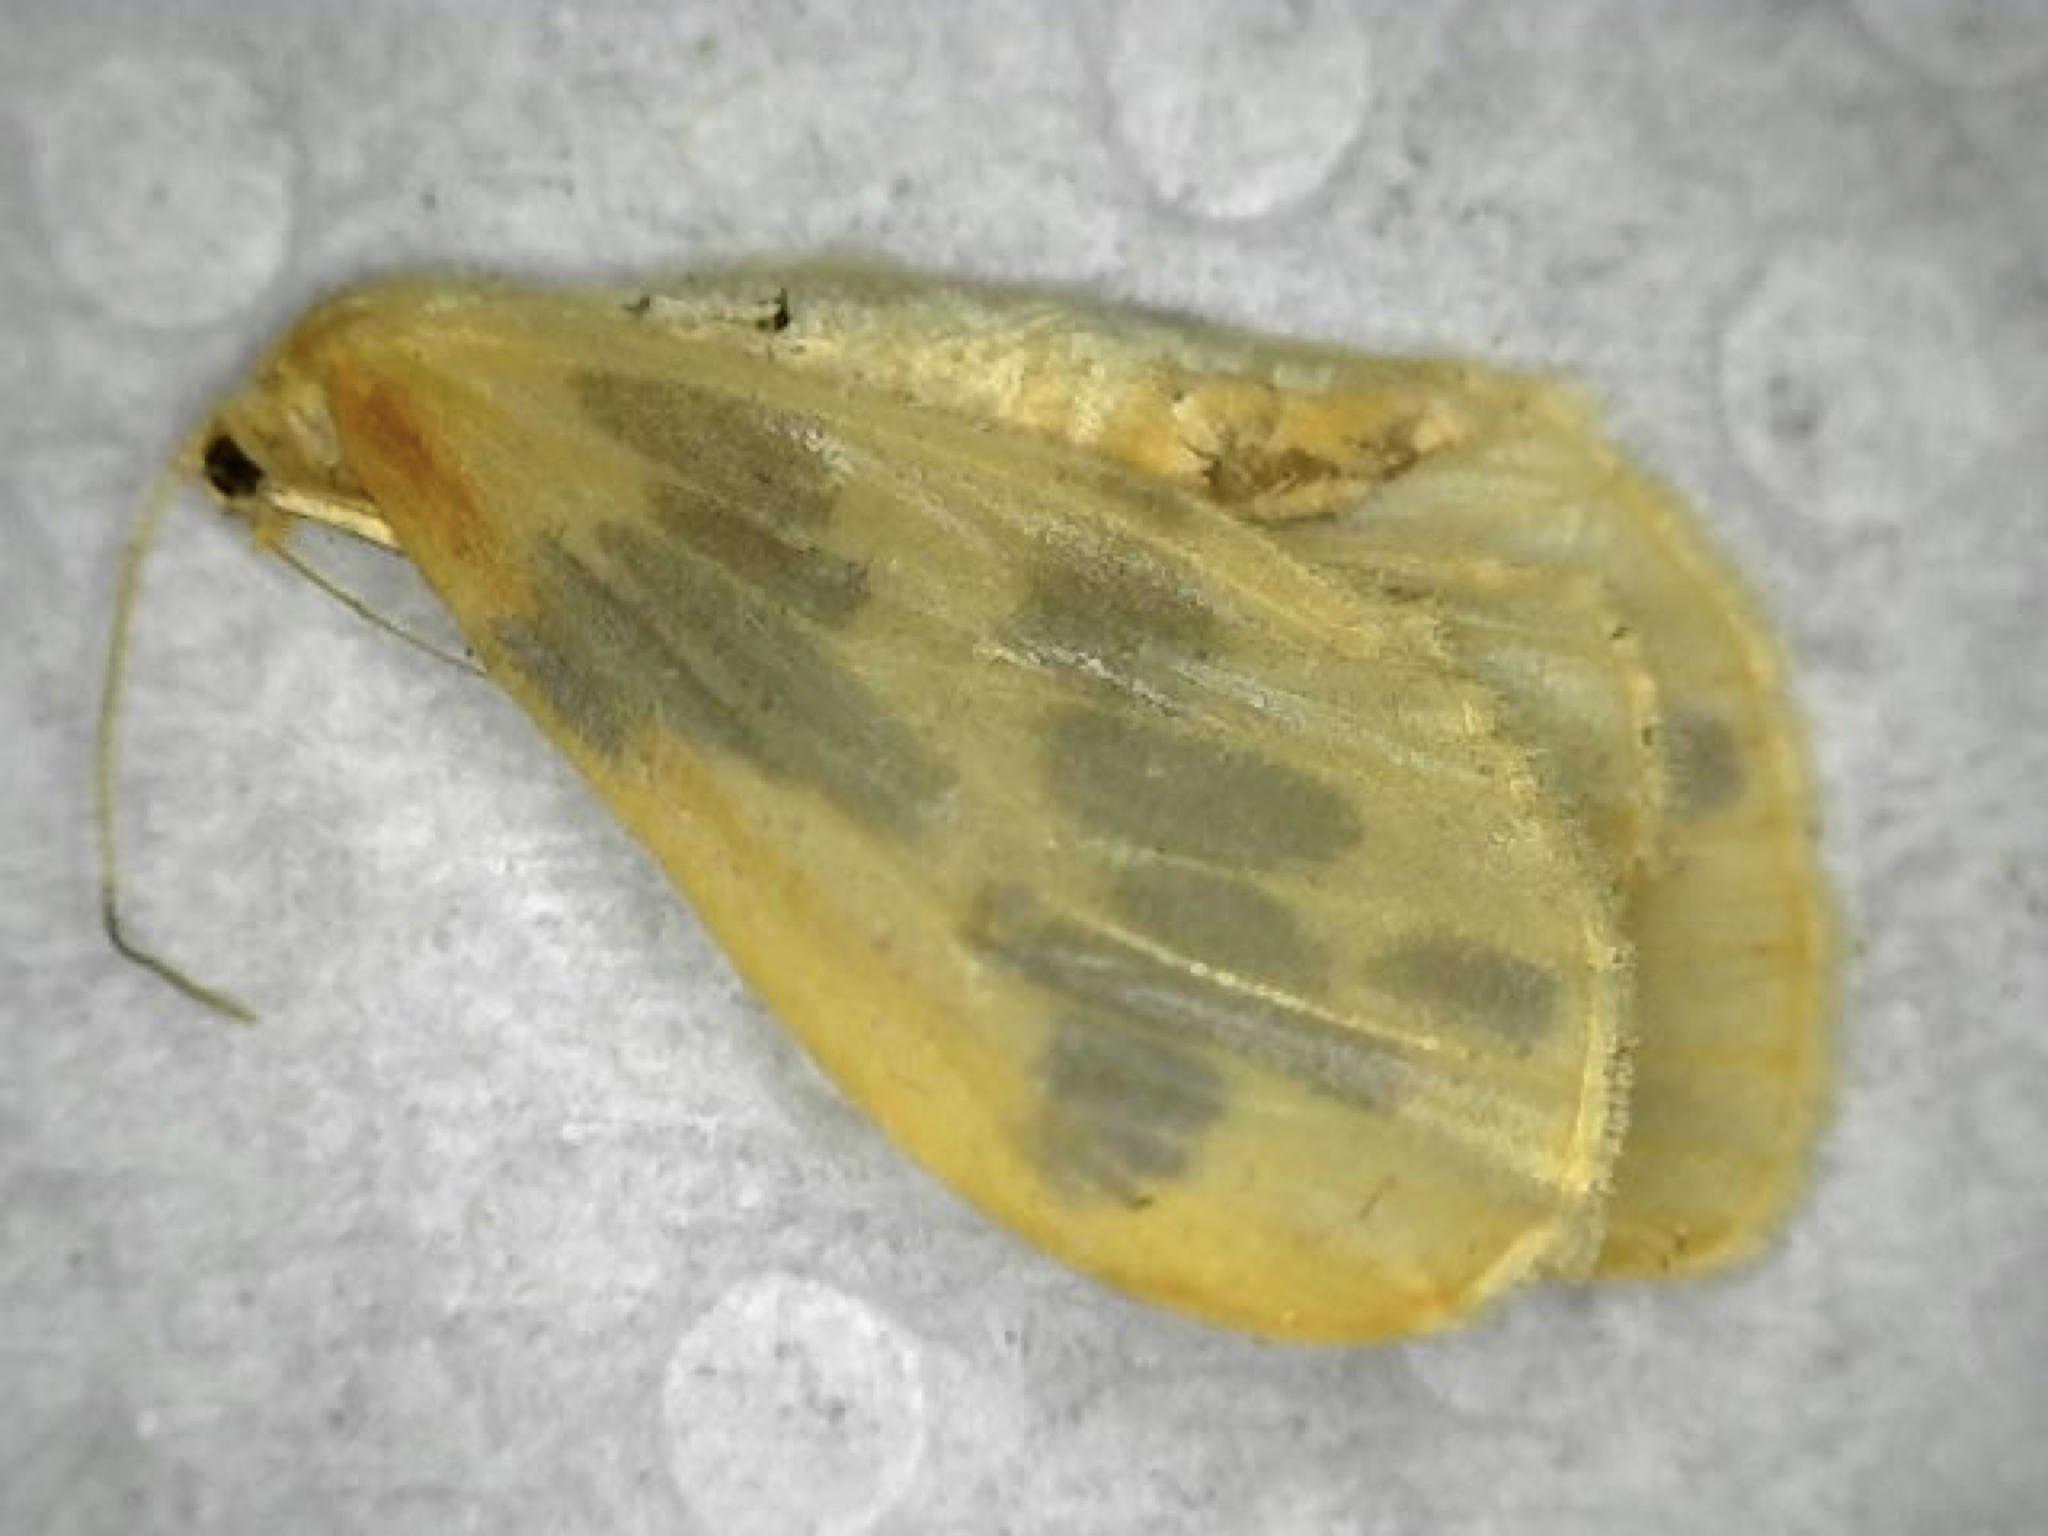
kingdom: Animalia
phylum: Arthropoda
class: Insecta
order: Lepidoptera
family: Geometridae
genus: Eubaphe
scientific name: Eubaphe mendica
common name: Beggar
